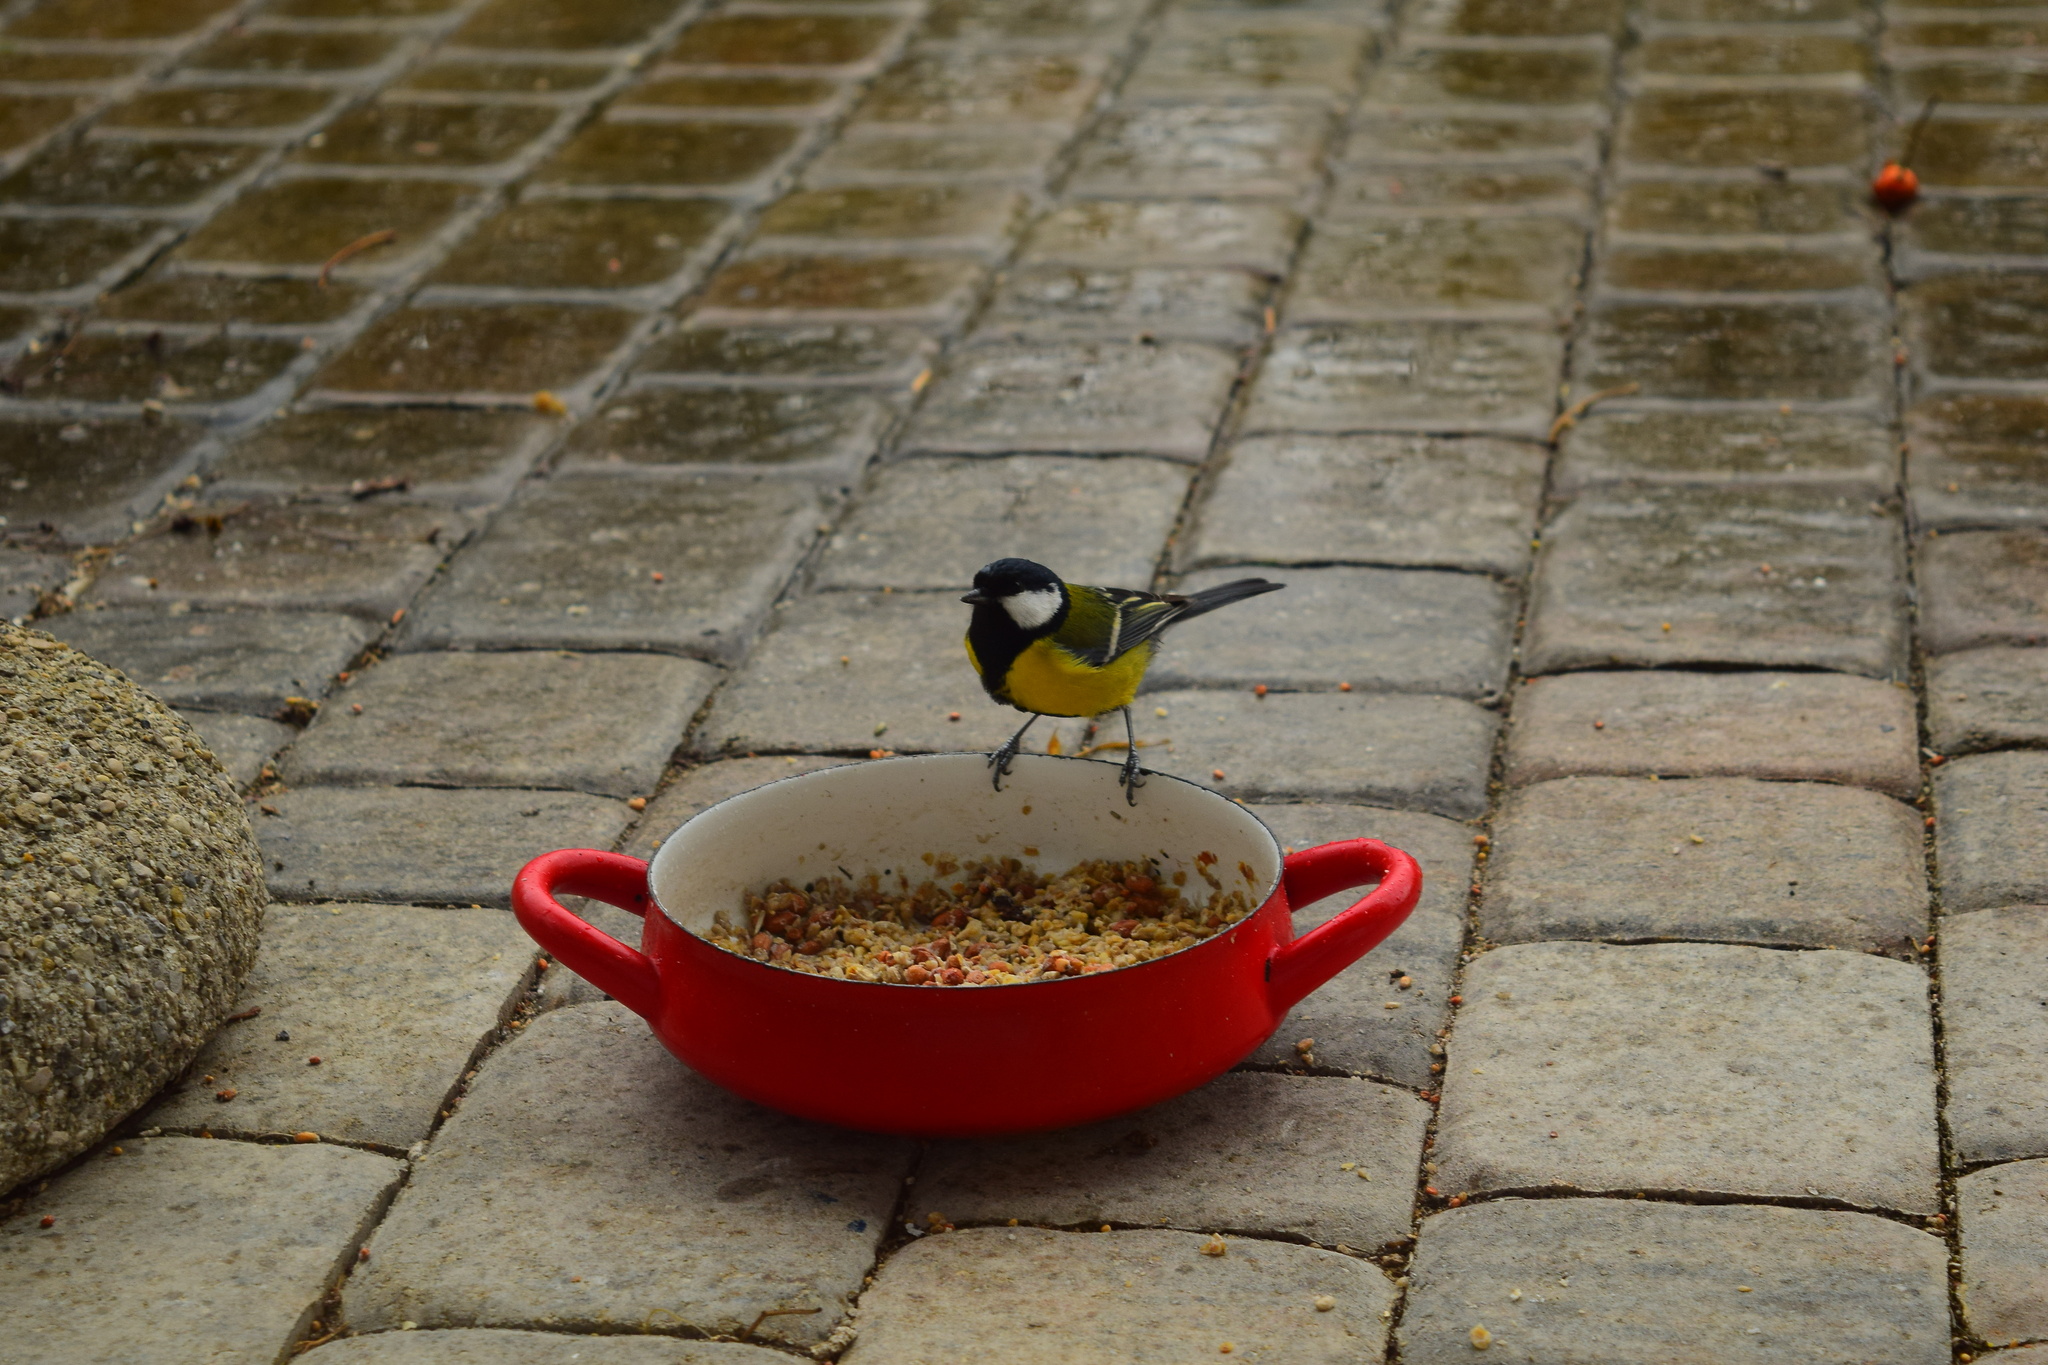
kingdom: Animalia
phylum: Chordata
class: Aves
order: Passeriformes
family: Paridae
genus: Parus
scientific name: Parus major
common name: Great tit
